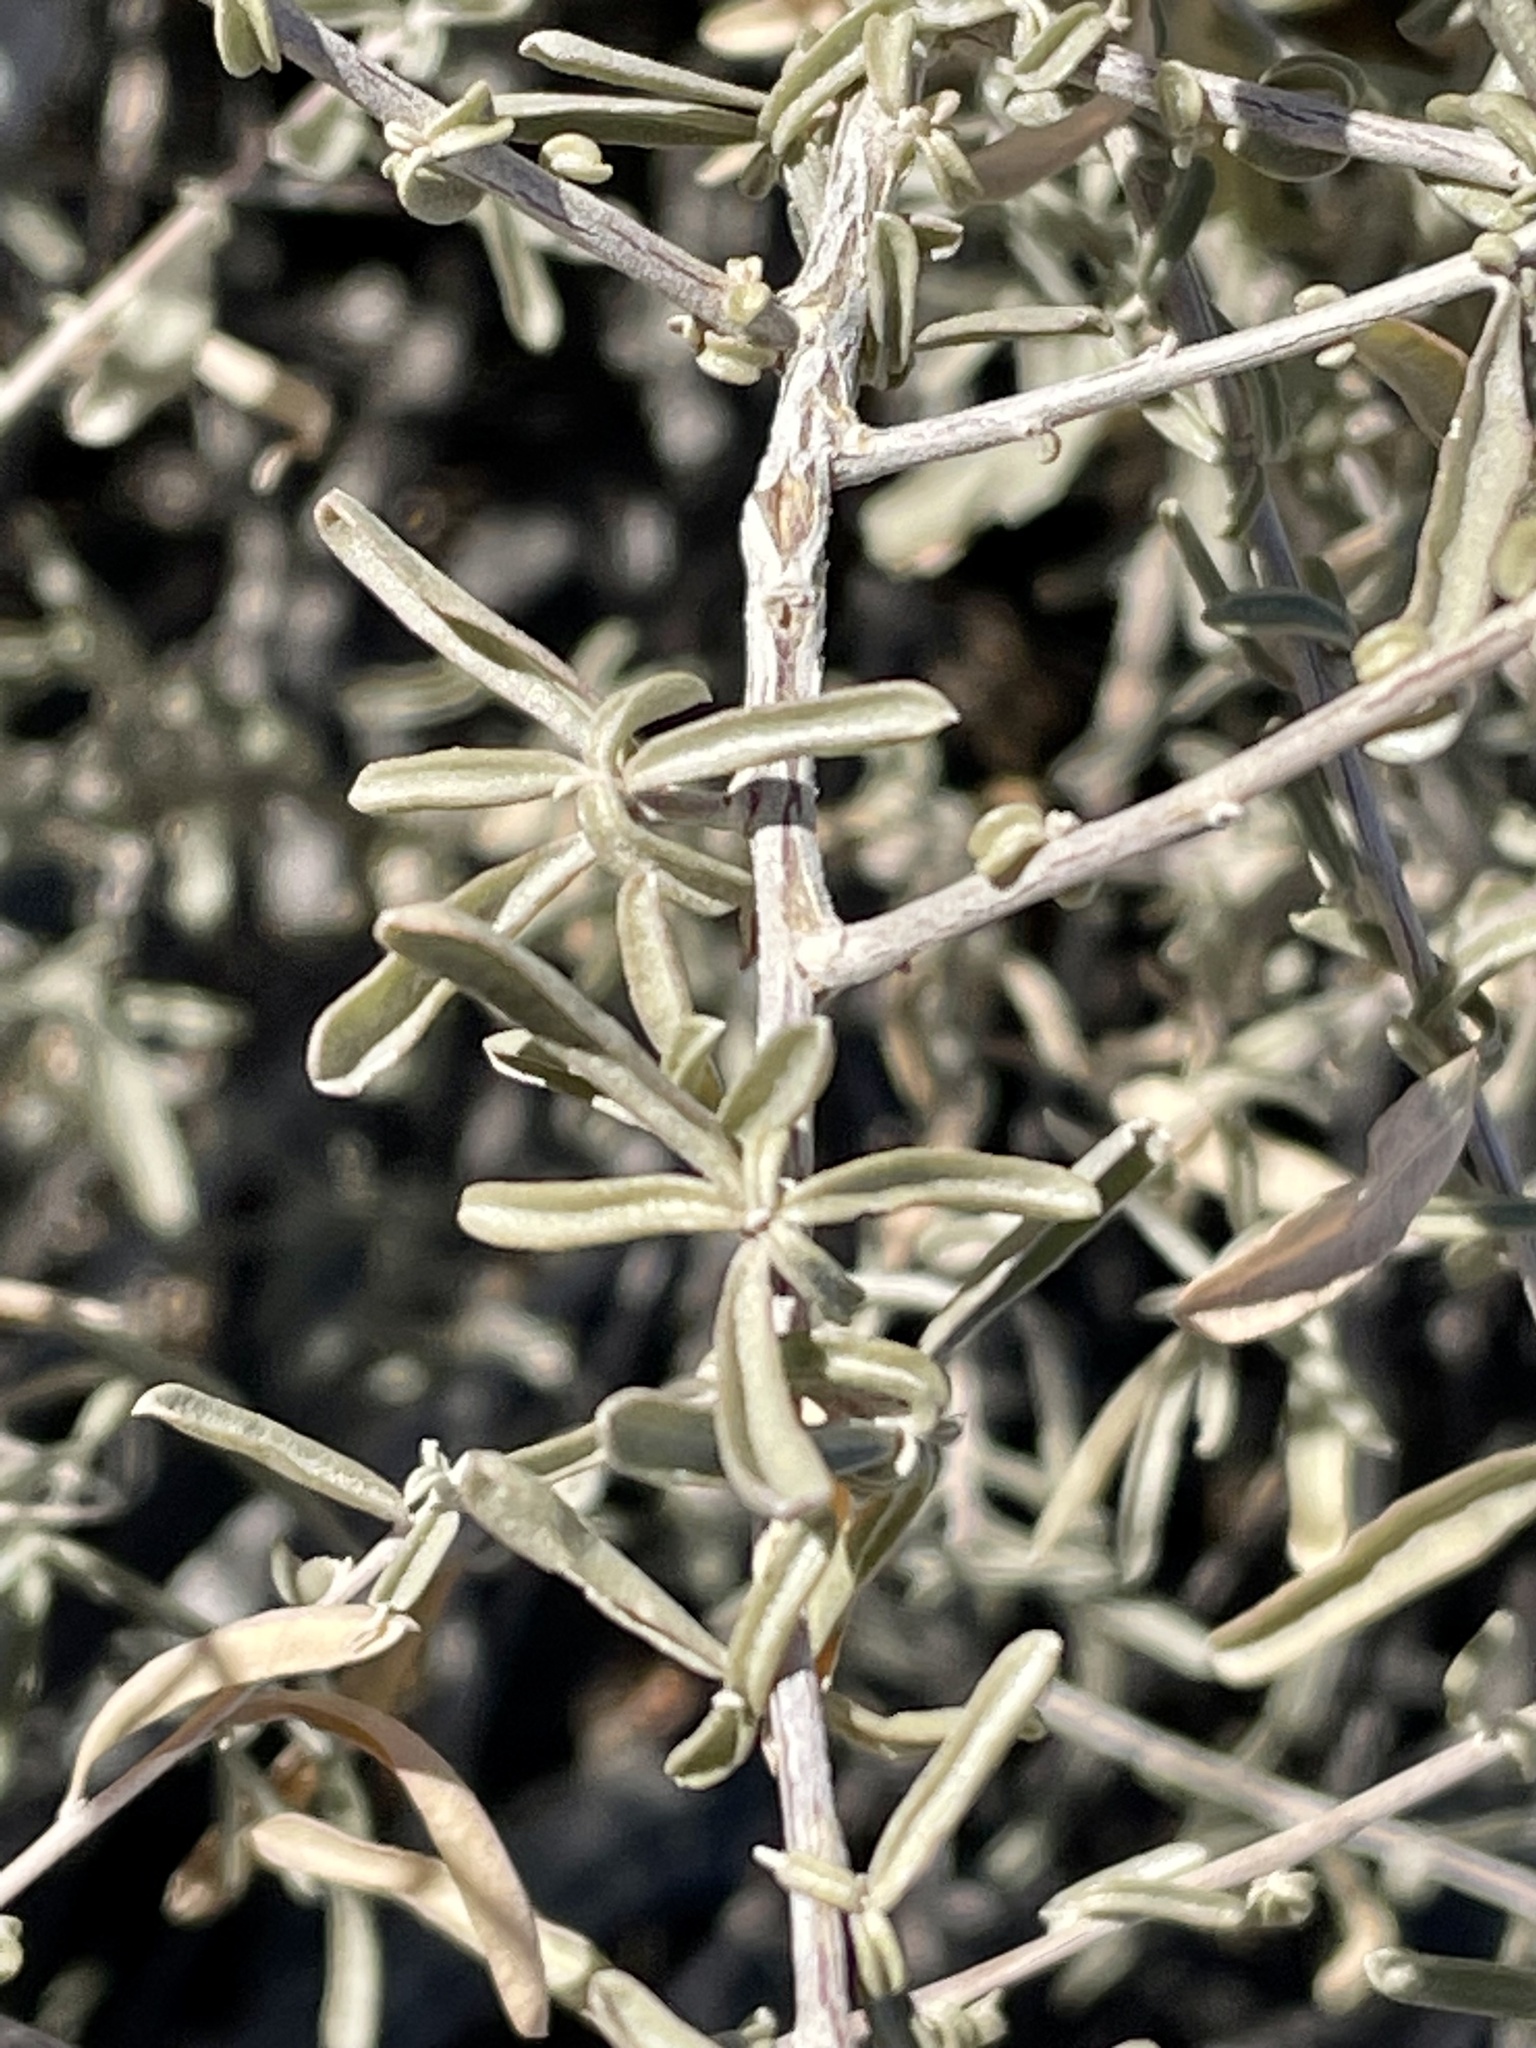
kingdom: Plantae
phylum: Tracheophyta
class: Magnoliopsida
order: Caryophyllales
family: Amaranthaceae
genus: Atriplex
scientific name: Atriplex canescens
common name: Four-wing saltbush
